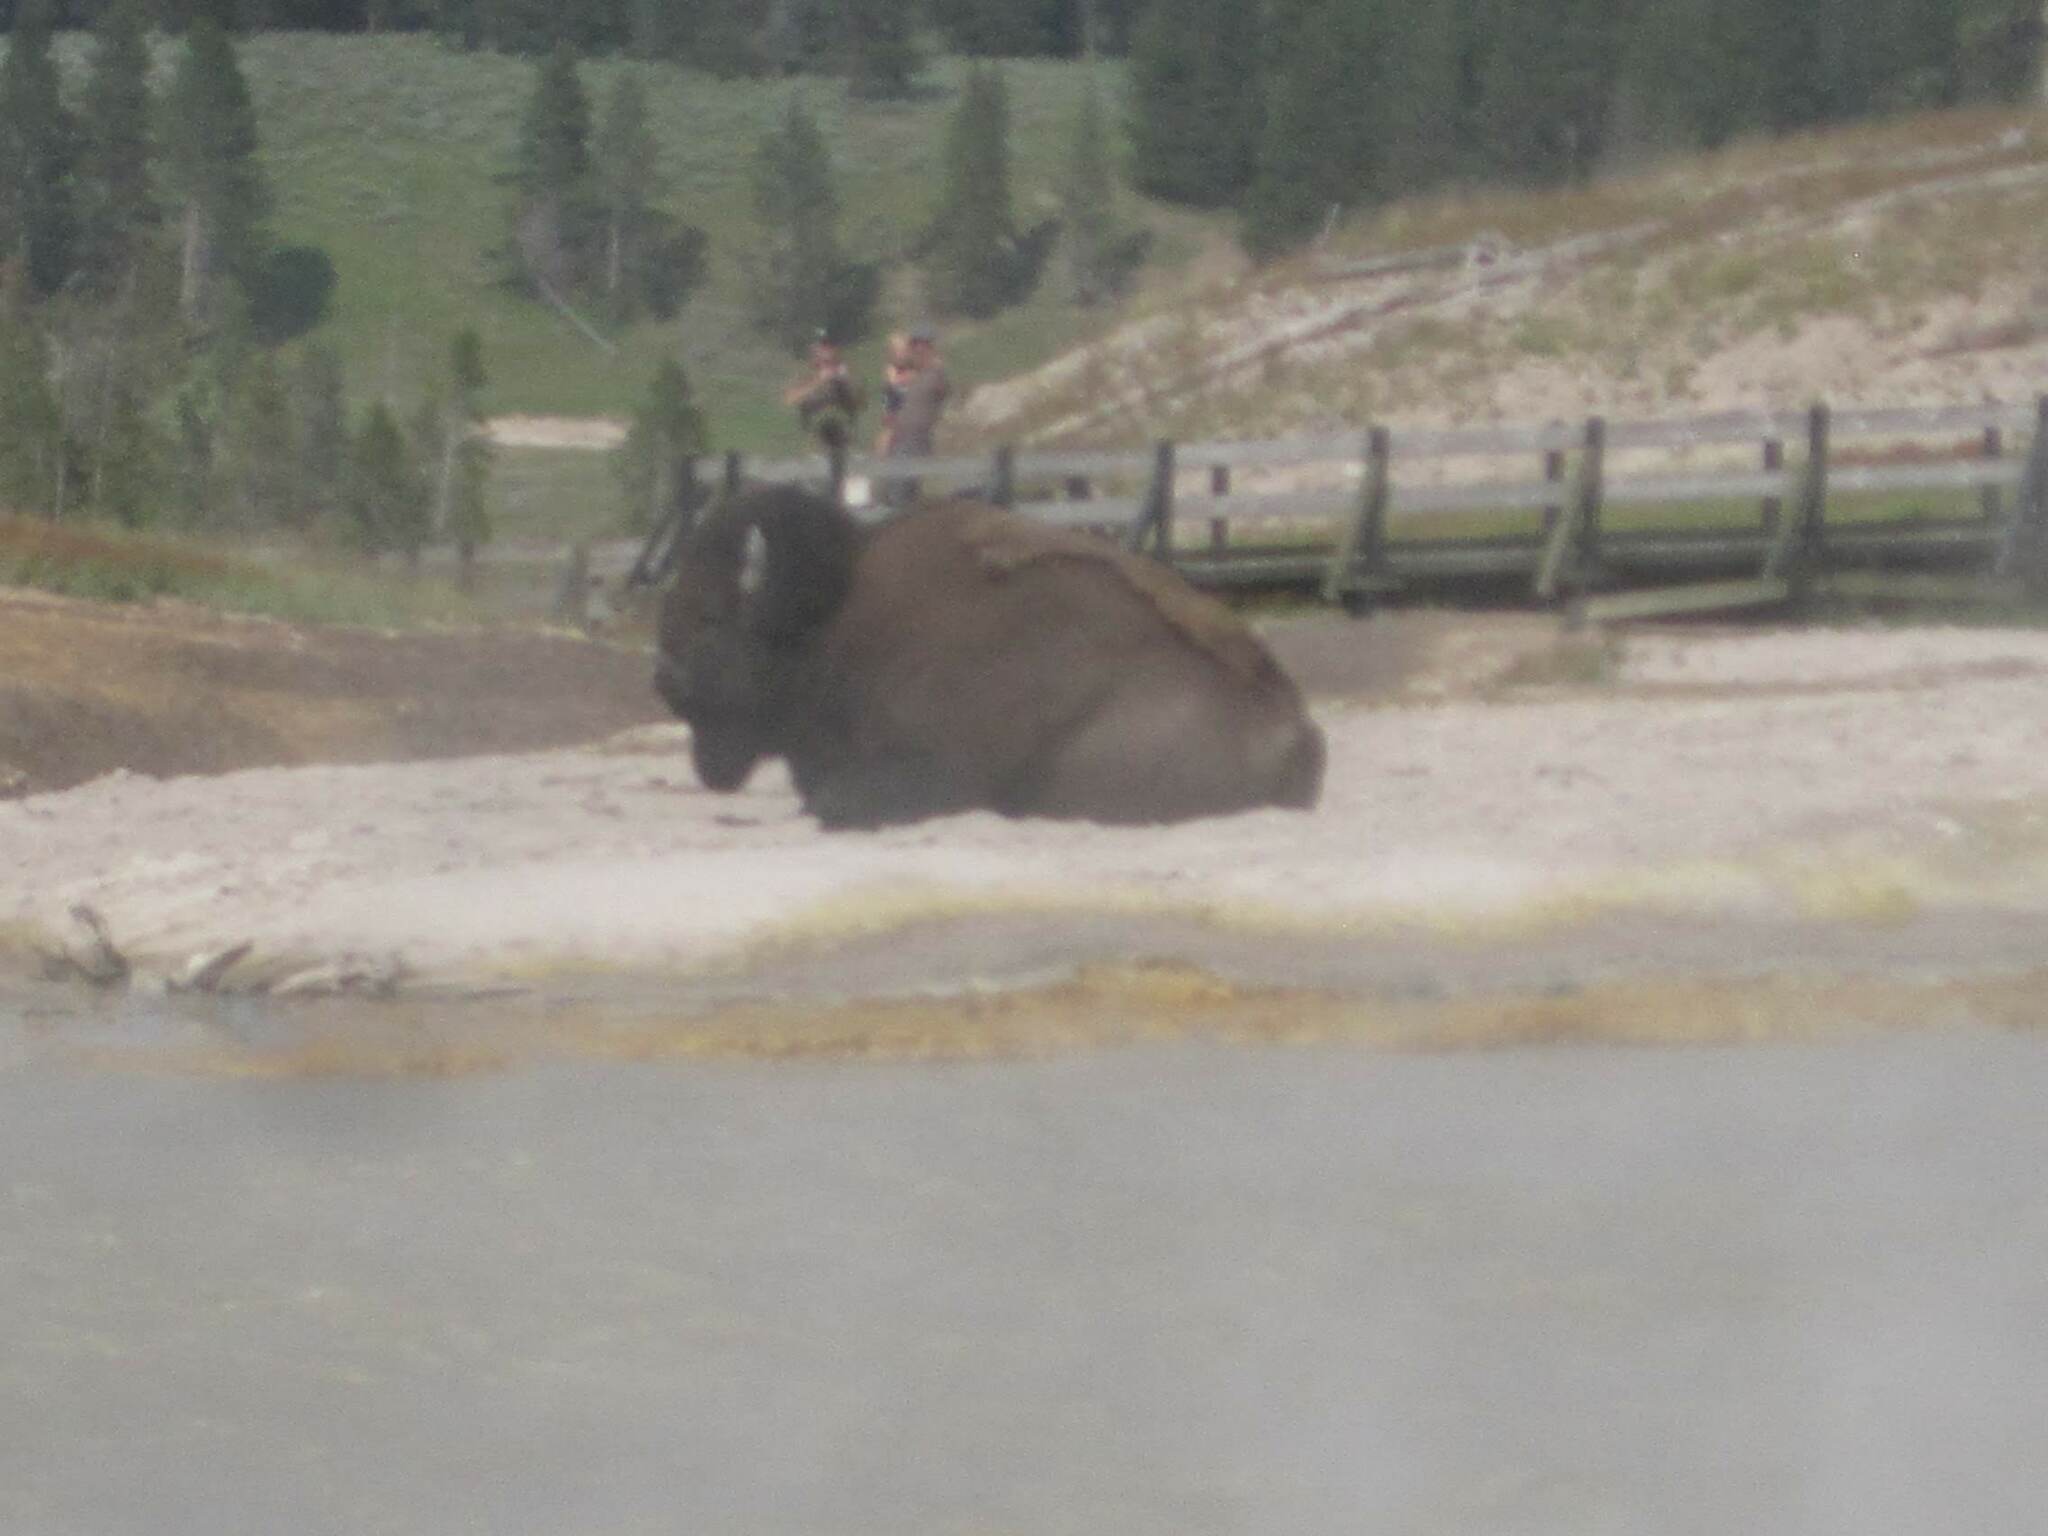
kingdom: Animalia
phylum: Chordata
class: Mammalia
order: Artiodactyla
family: Bovidae
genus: Bison
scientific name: Bison bison
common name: American bison
